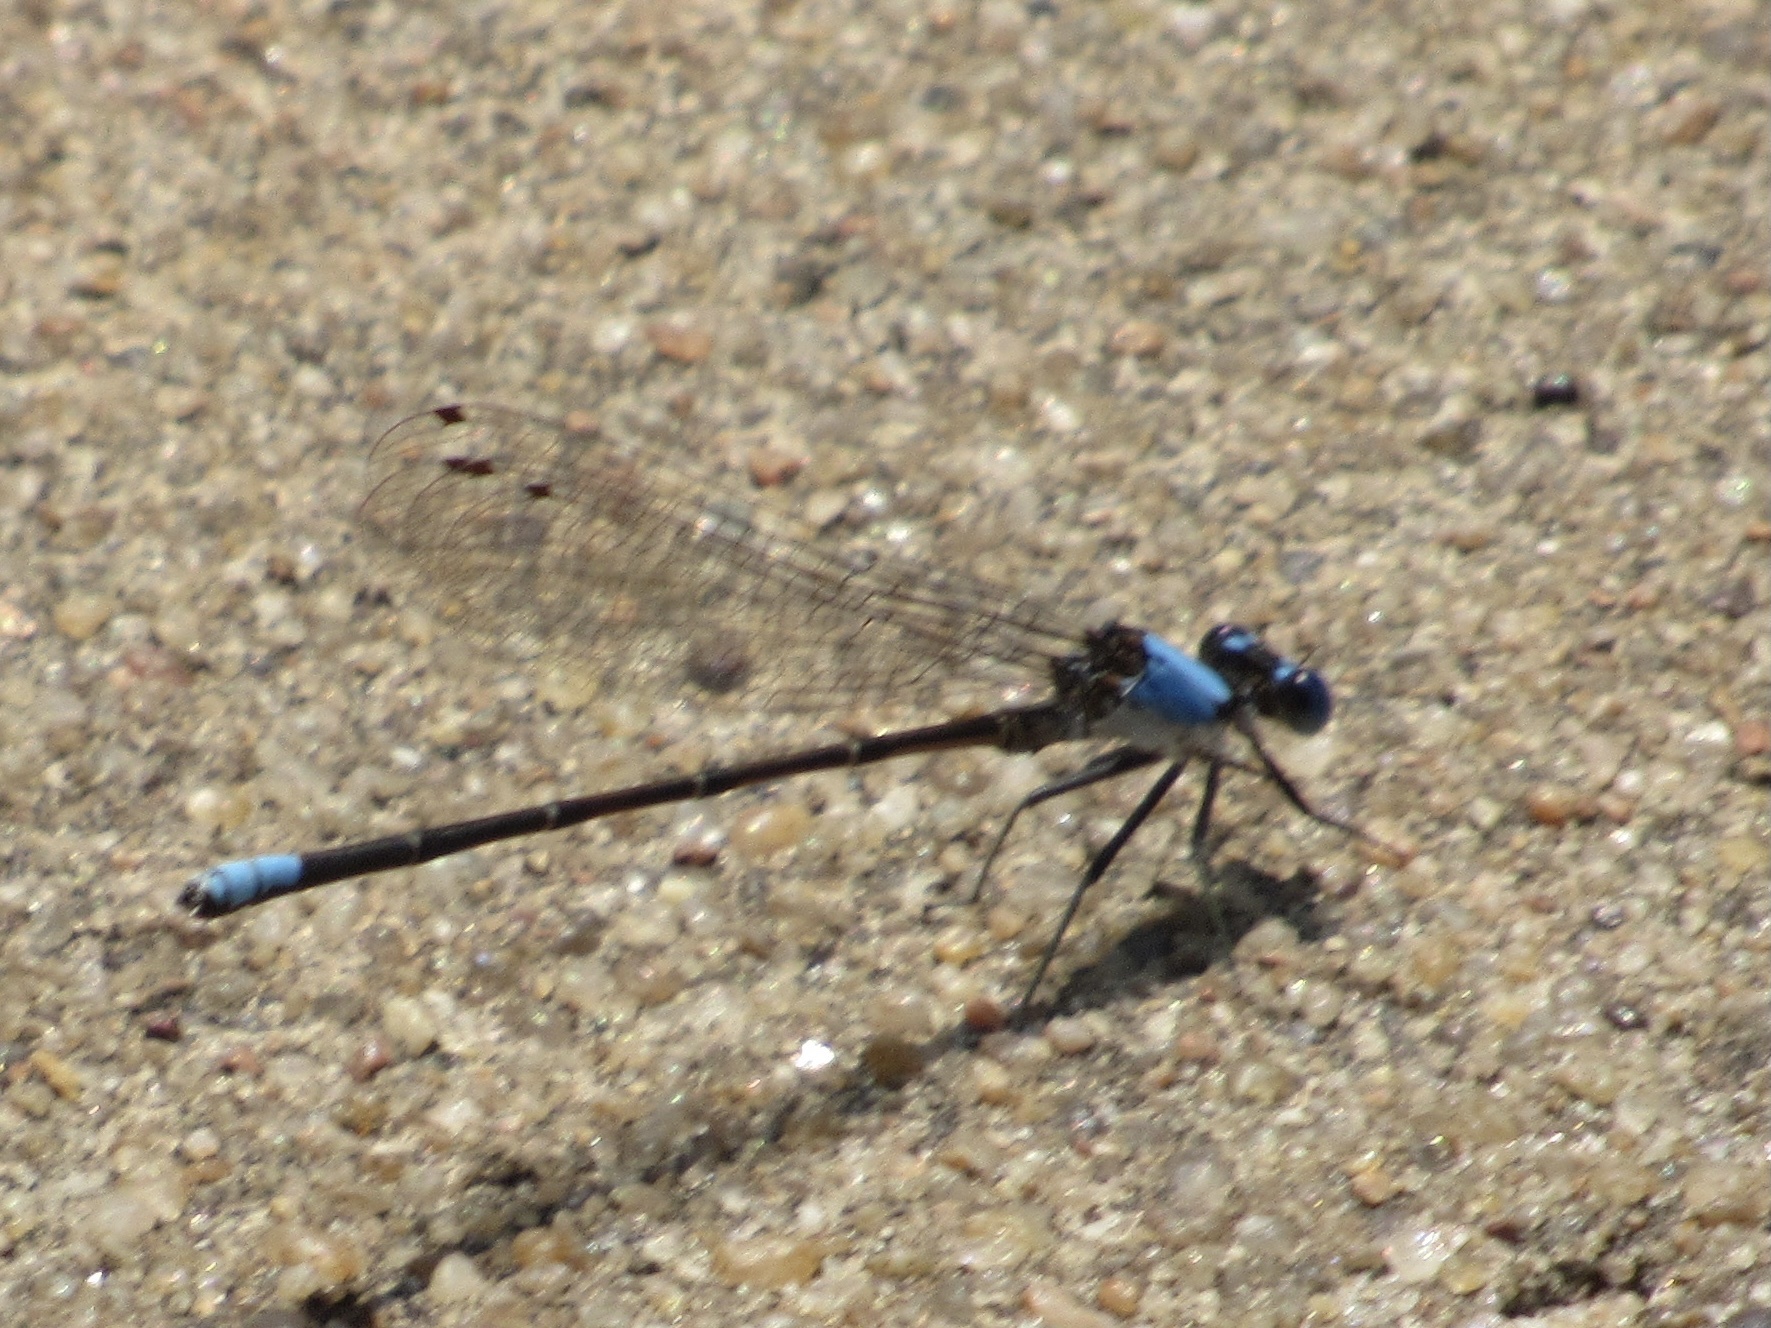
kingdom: Animalia
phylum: Arthropoda
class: Insecta
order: Odonata
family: Coenagrionidae
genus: Argia
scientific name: Argia apicalis
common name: Blue-fronted dancer
